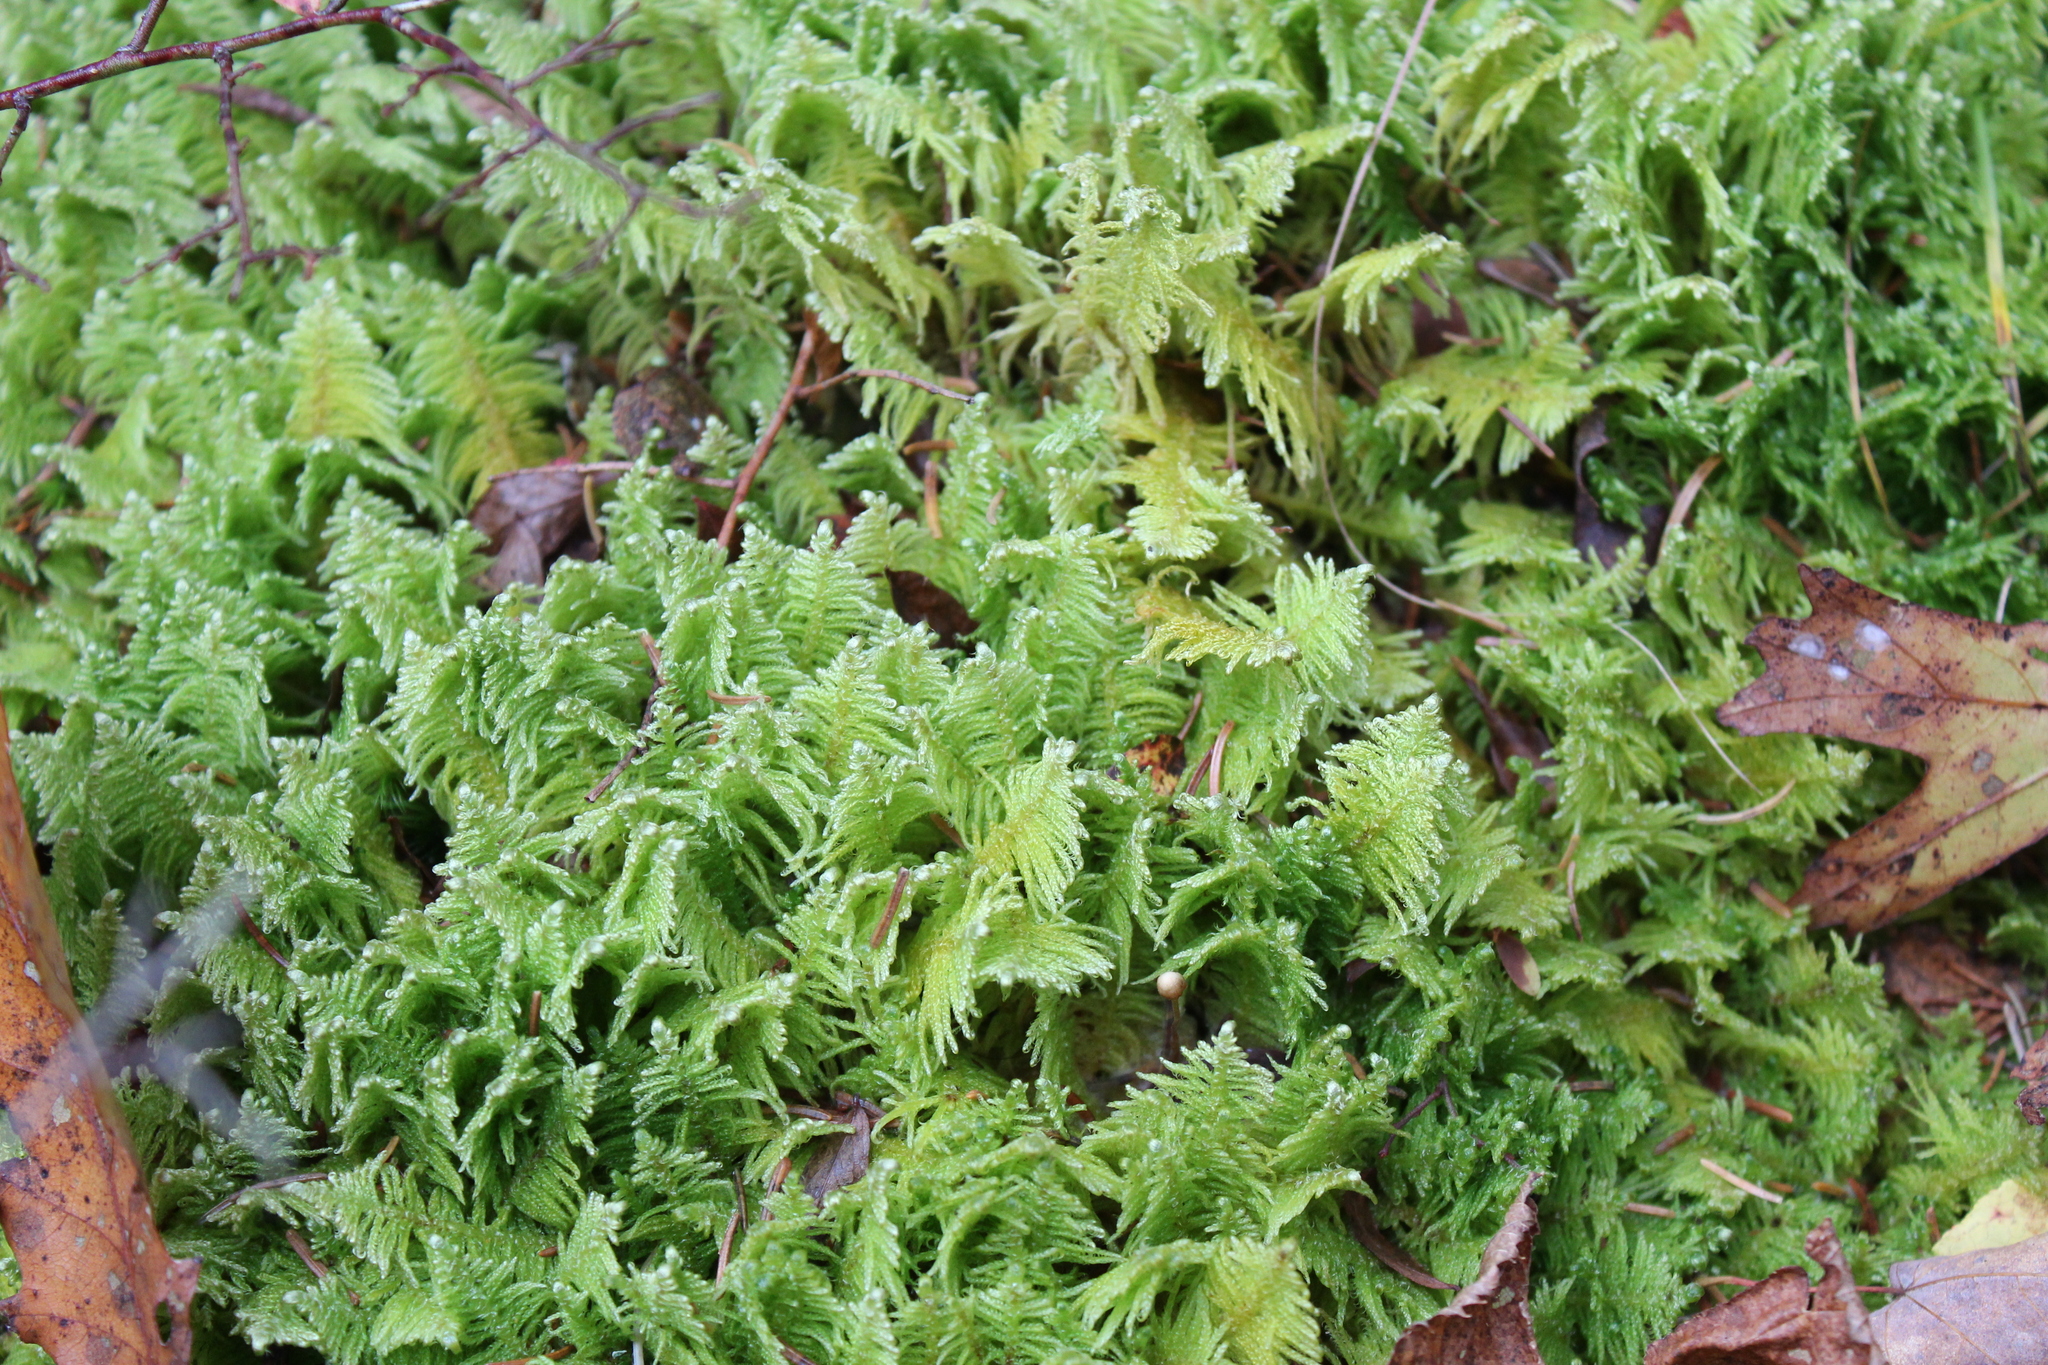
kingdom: Plantae
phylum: Bryophyta
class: Bryopsida
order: Hypnales
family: Pylaisiaceae
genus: Ptilium
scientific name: Ptilium crista-castrensis
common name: Knight's plume moss
